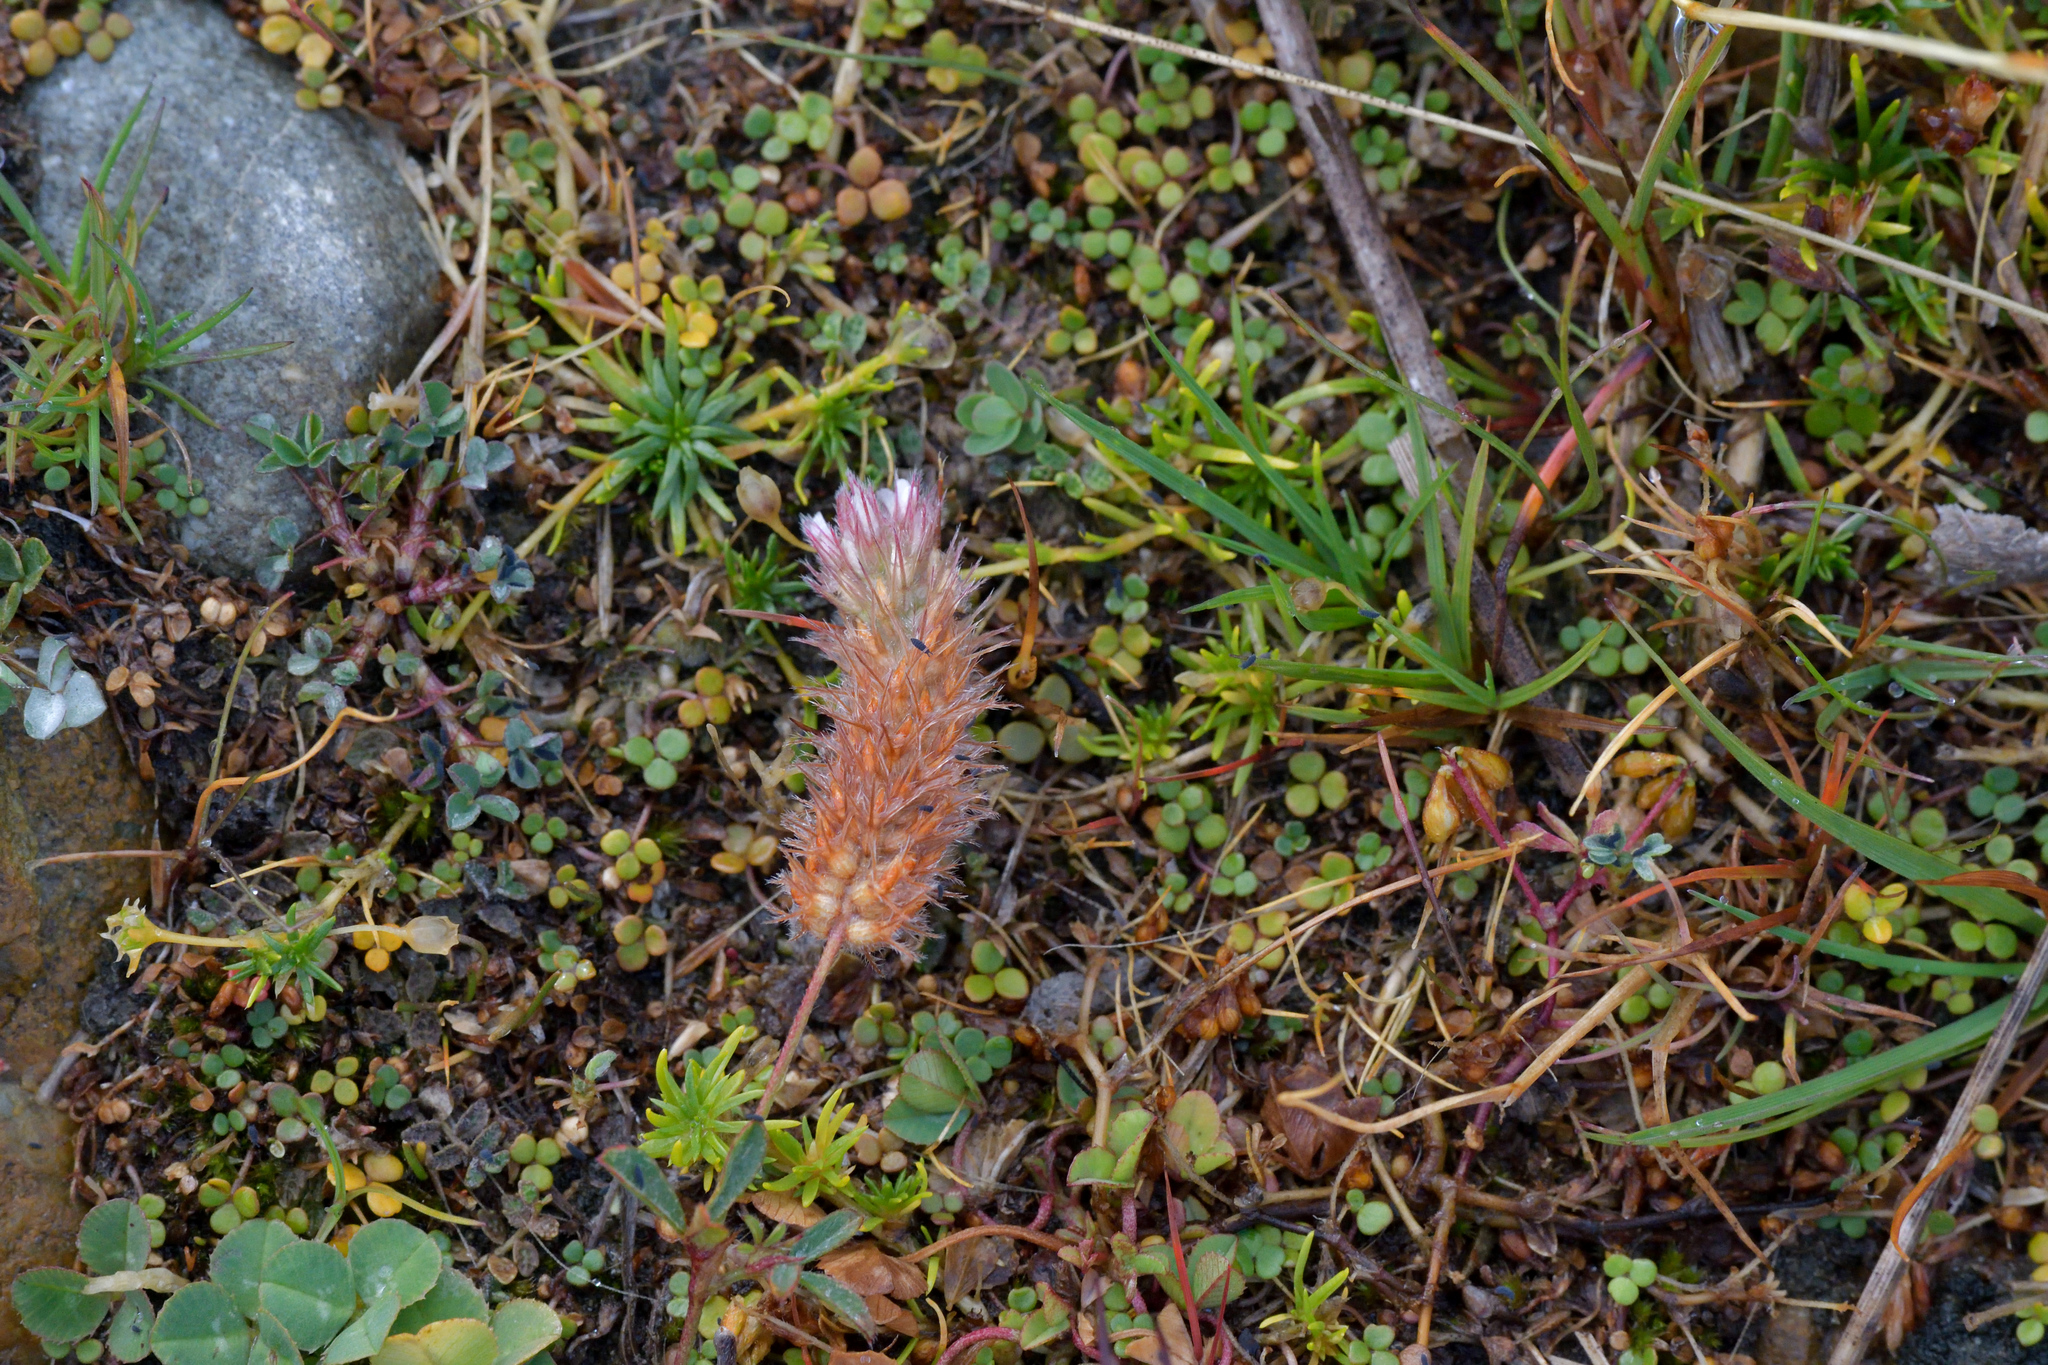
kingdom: Plantae
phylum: Tracheophyta
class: Magnoliopsida
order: Fabales
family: Fabaceae
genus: Trifolium
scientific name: Trifolium arvense
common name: Hare's-foot clover
